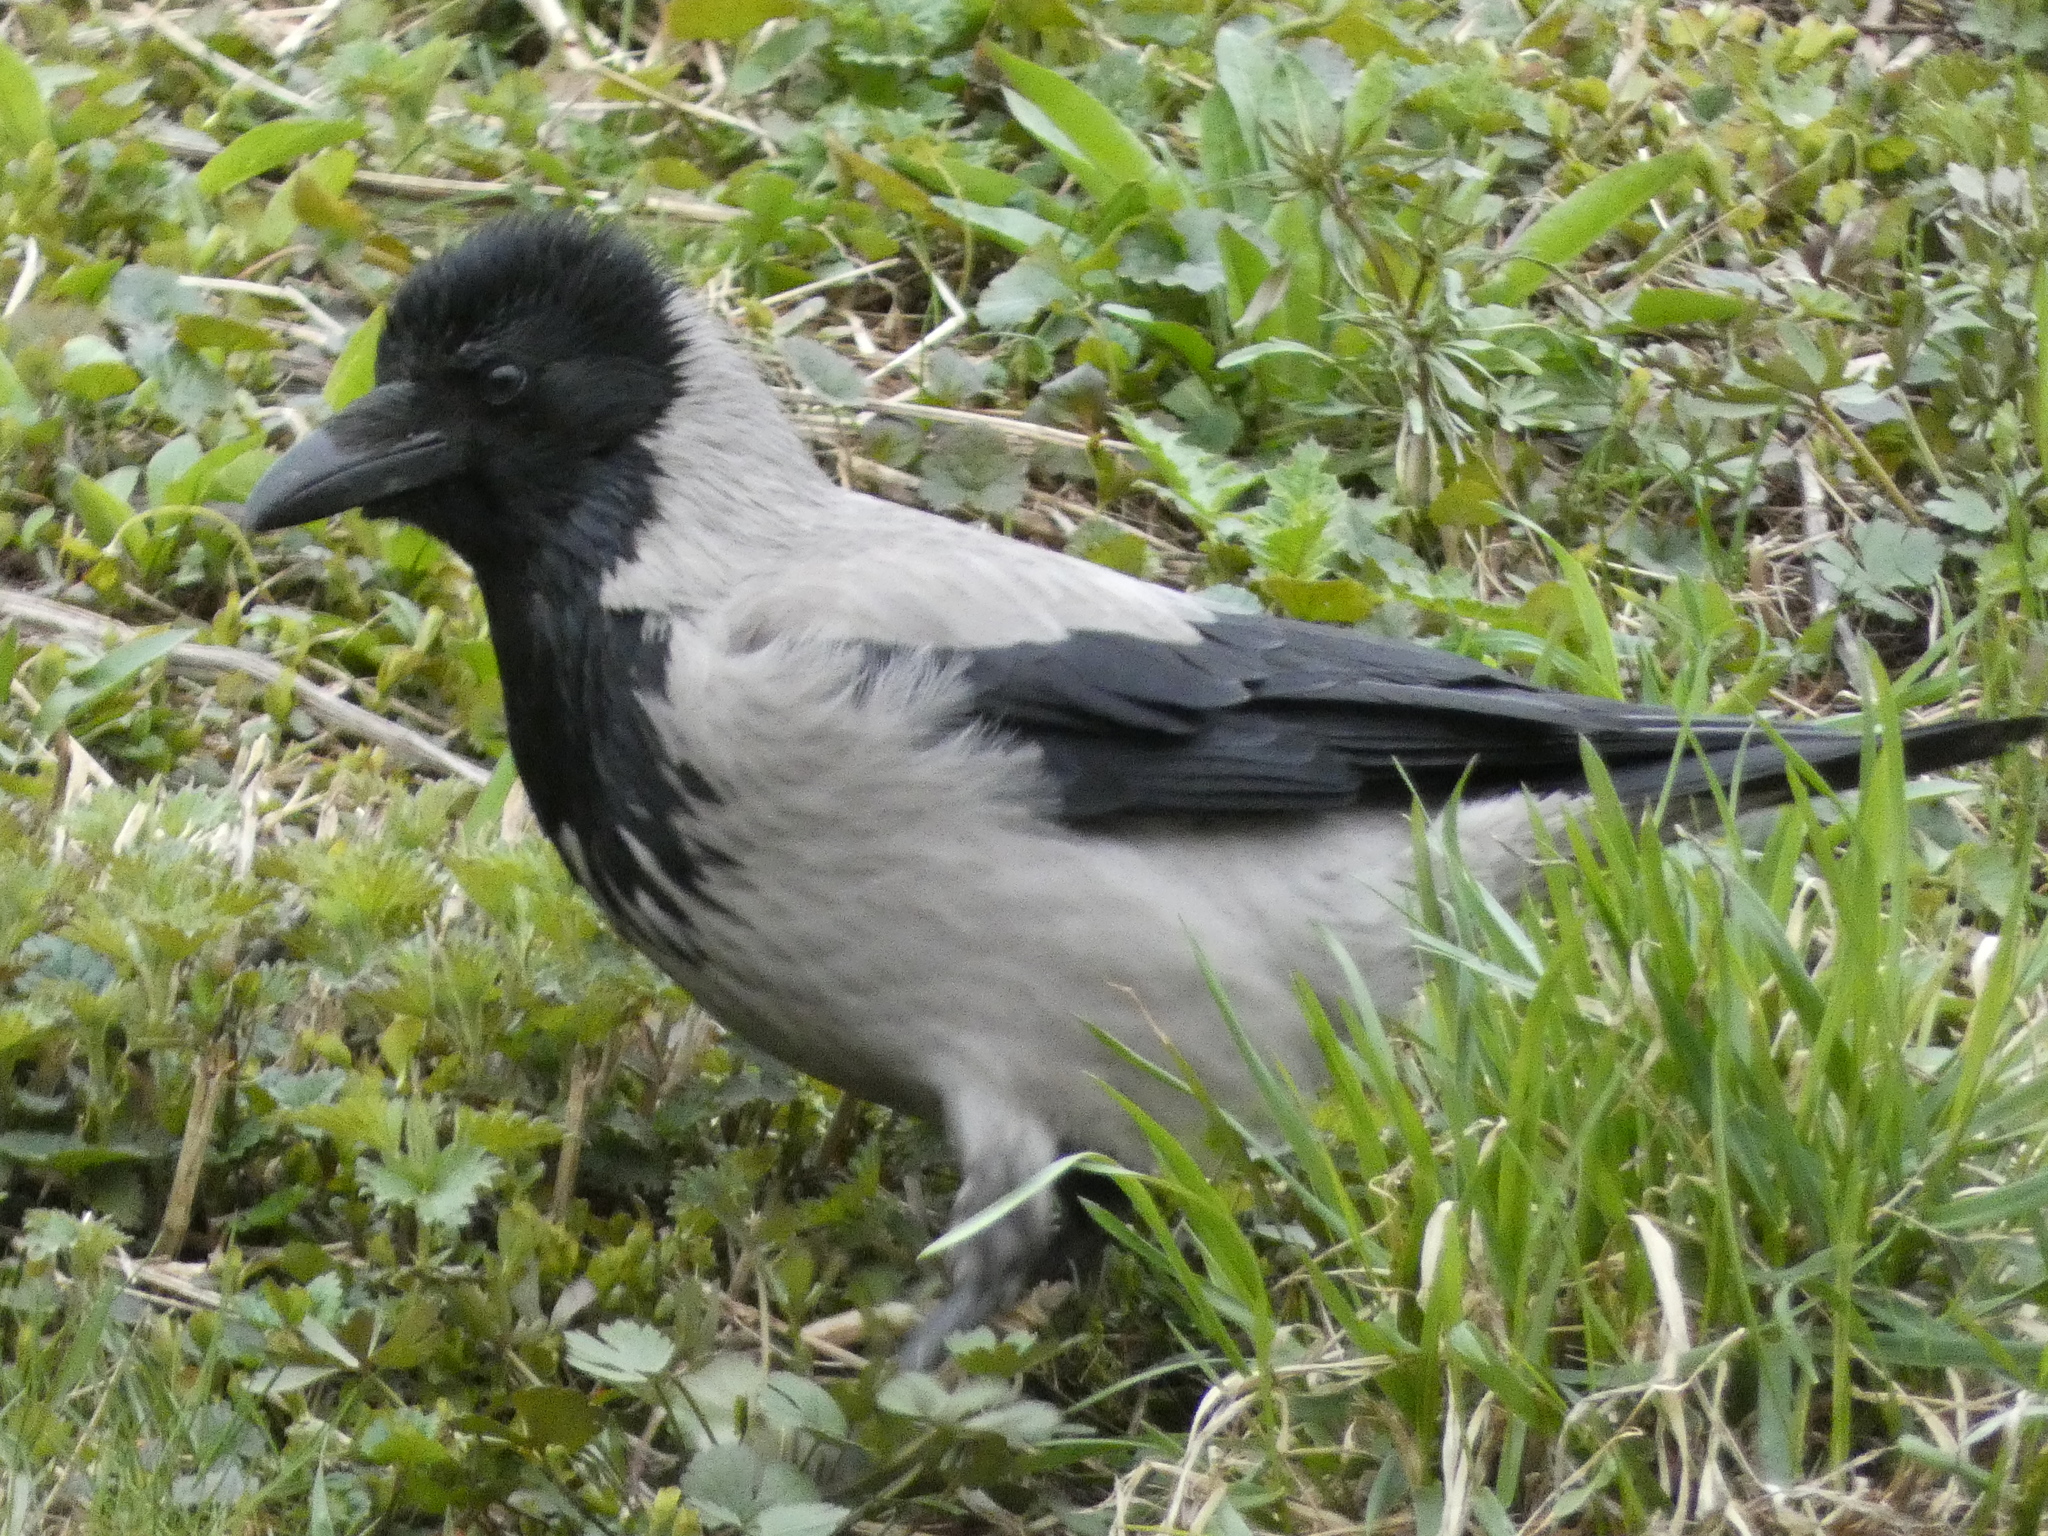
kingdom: Animalia
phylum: Chordata
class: Aves
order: Passeriformes
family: Corvidae
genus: Corvus
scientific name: Corvus cornix
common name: Hooded crow
